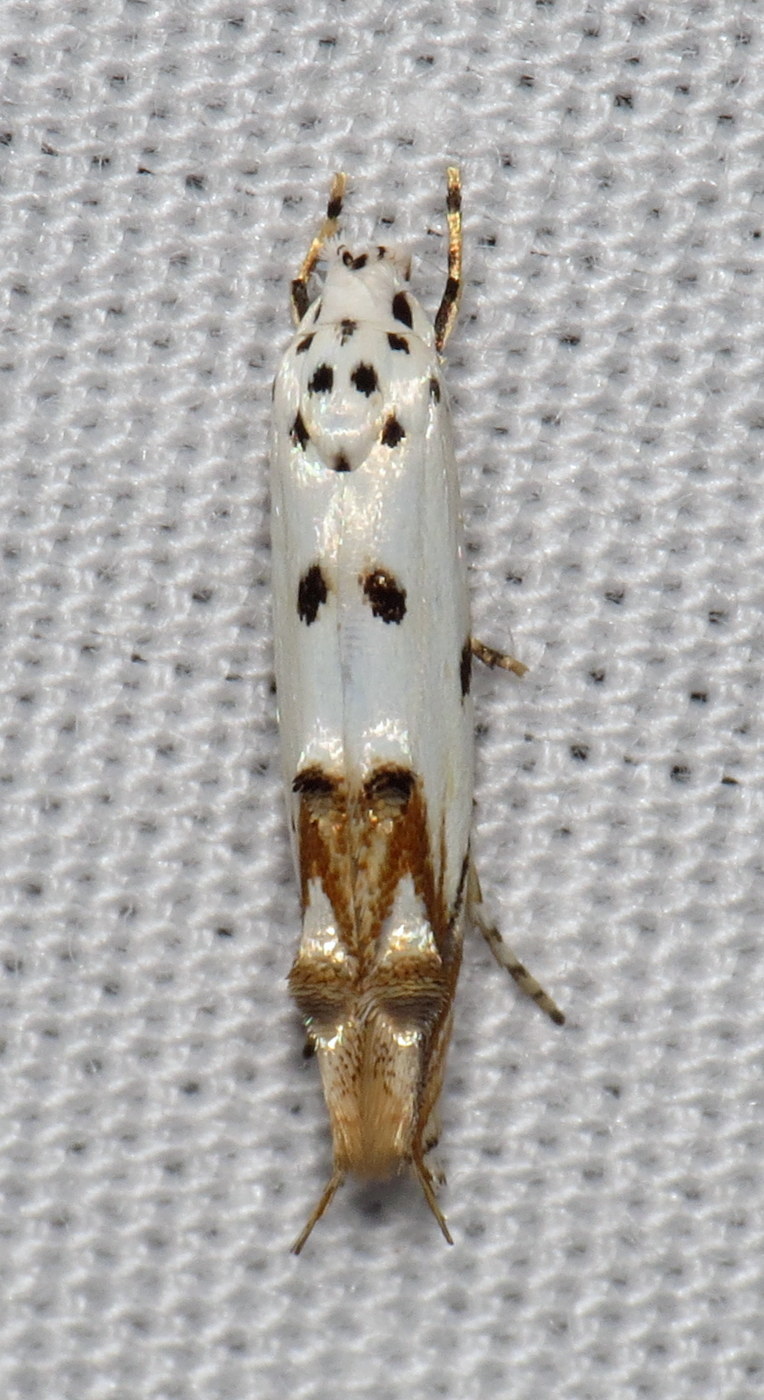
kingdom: Animalia
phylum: Arthropoda
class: Insecta
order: Lepidoptera
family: Momphidae
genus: Mompha
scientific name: Mompha eloisella
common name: Red-streaked mompha moth
